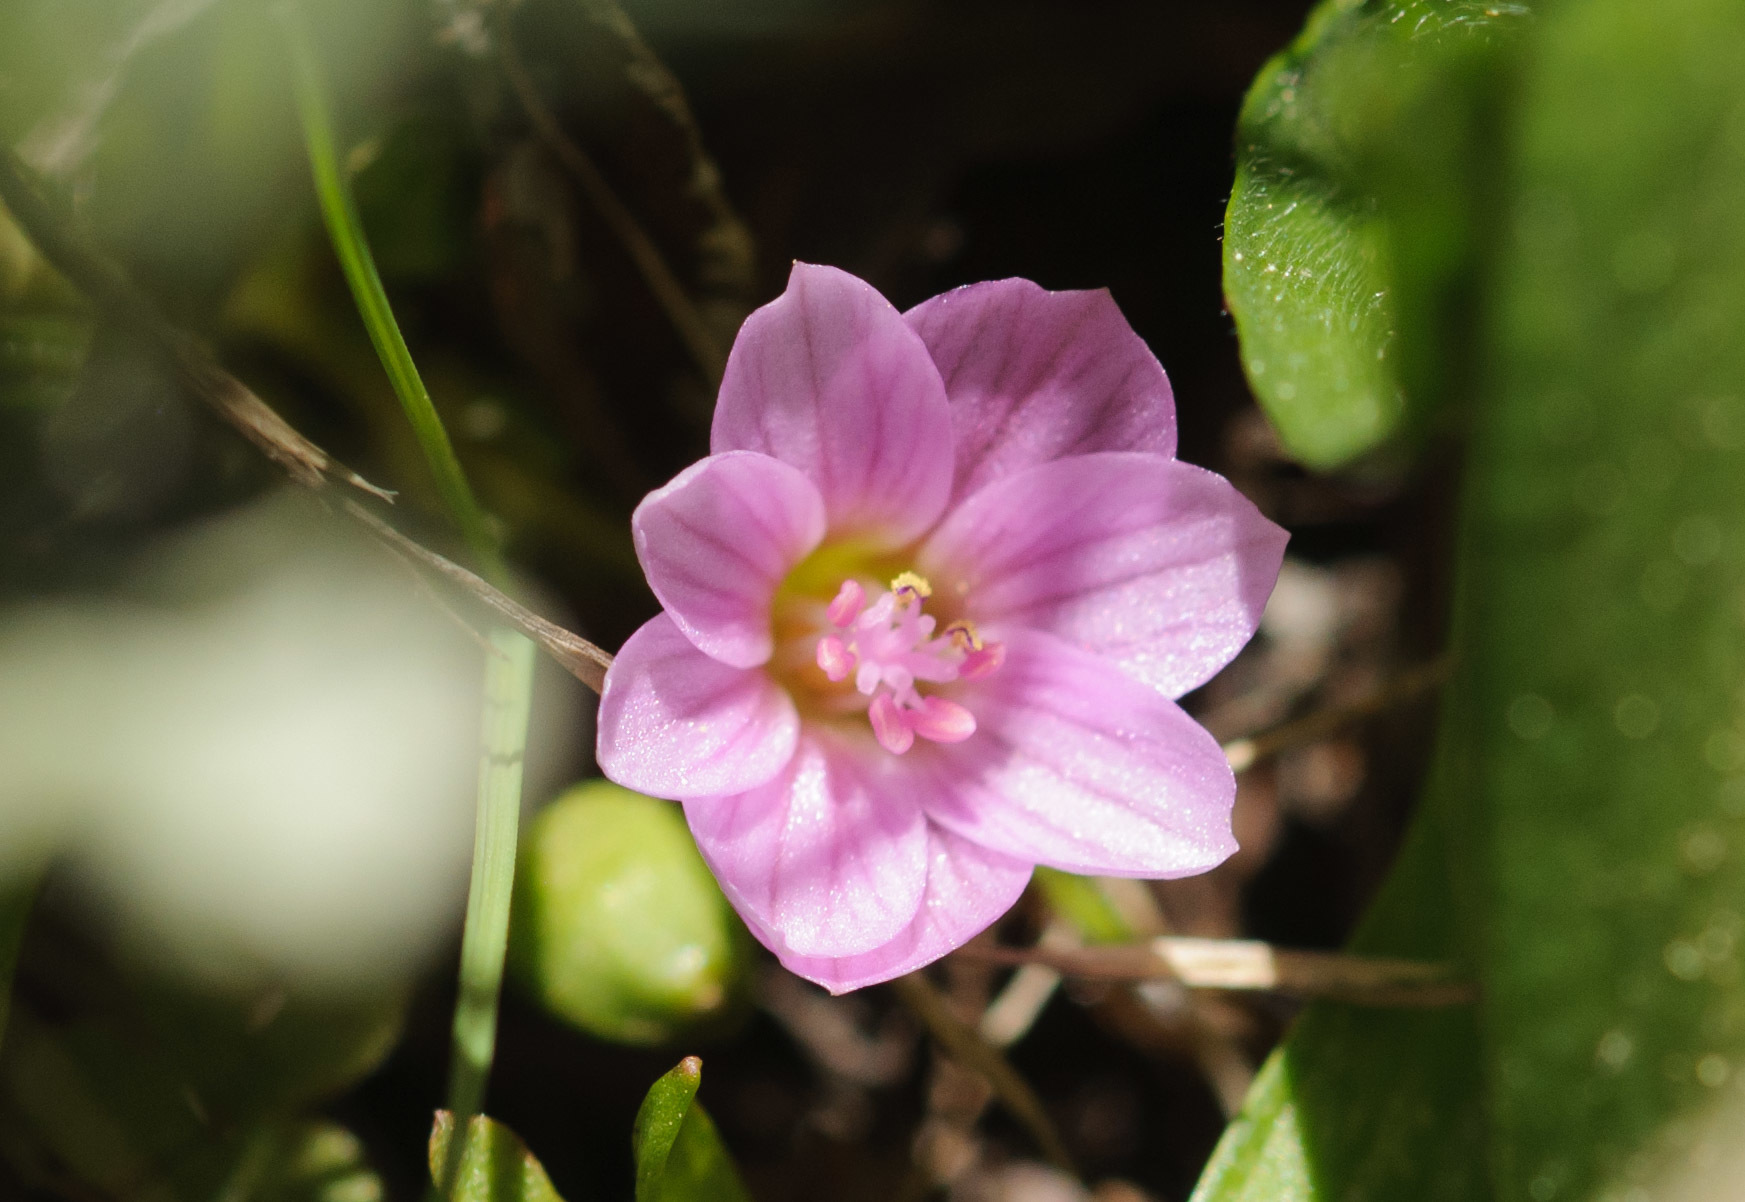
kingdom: Plantae
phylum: Tracheophyta
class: Magnoliopsida
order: Caryophyllales
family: Montiaceae
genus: Lewisia
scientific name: Lewisia pygmaea
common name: Alpine bitterroot
